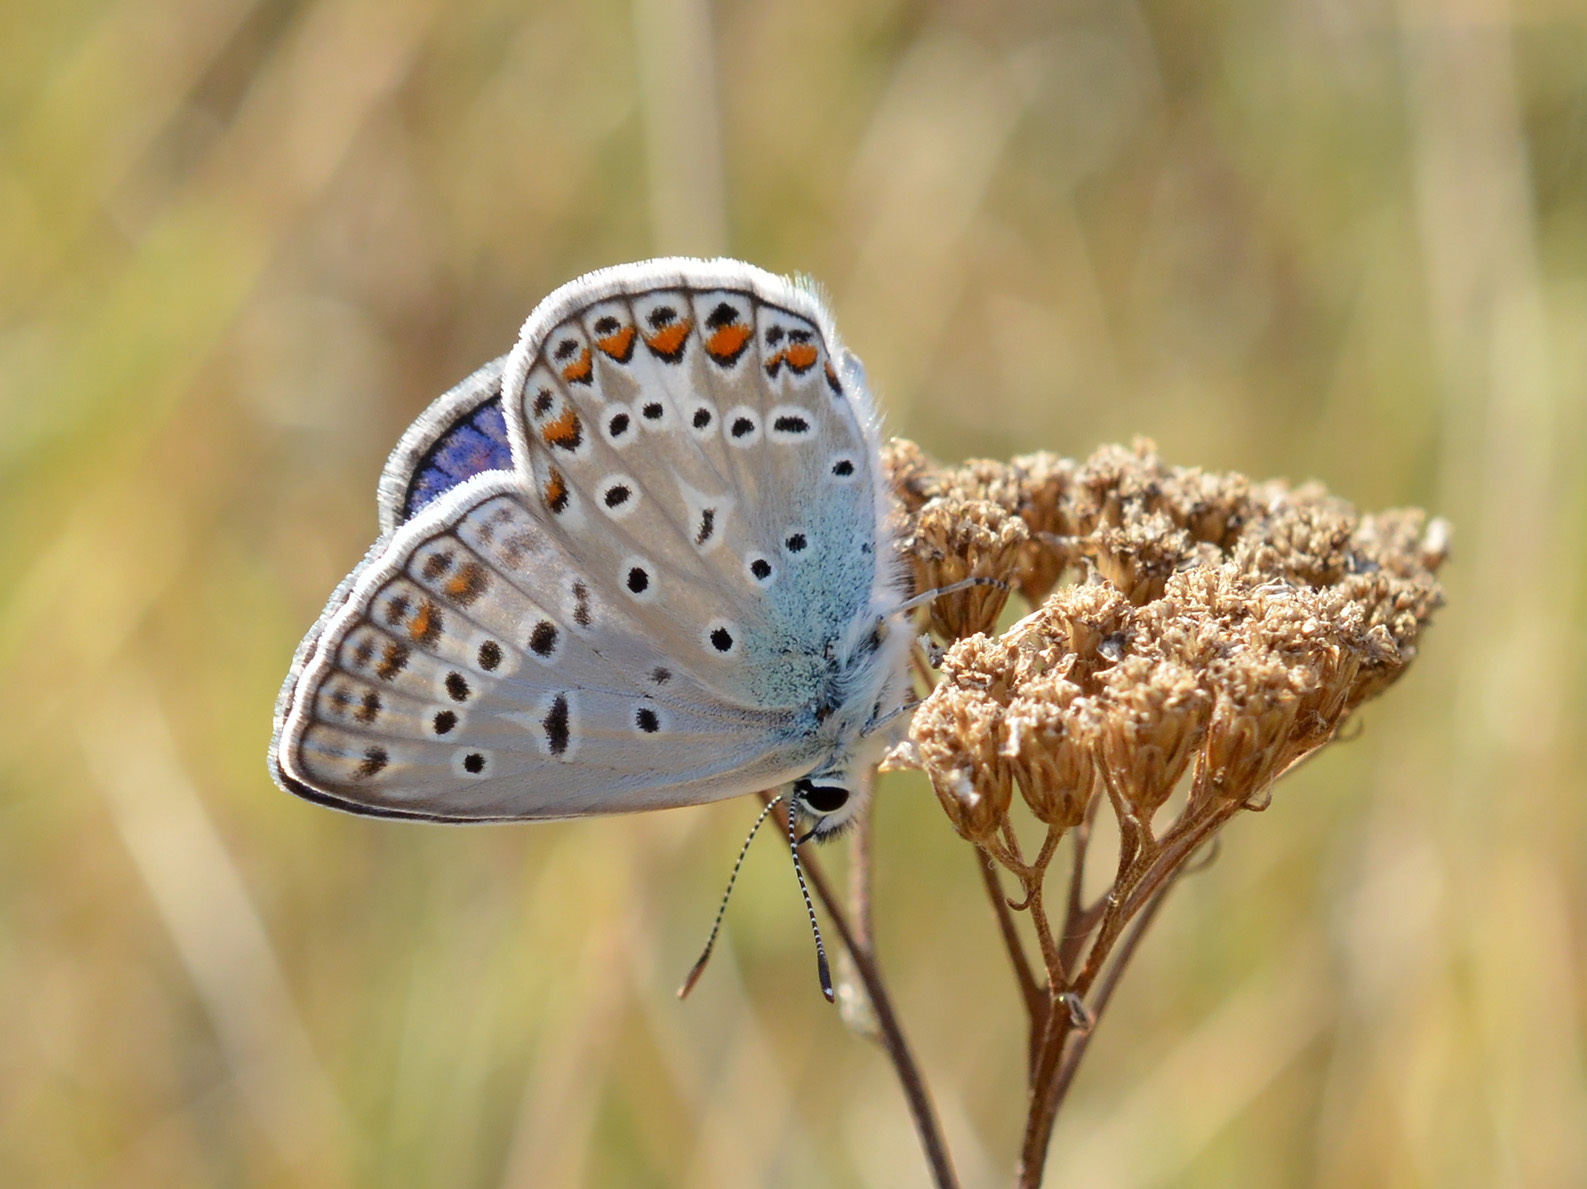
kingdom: Animalia
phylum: Arthropoda
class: Insecta
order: Lepidoptera
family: Lycaenidae
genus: Polyommatus
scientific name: Polyommatus icarus
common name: Common blue
